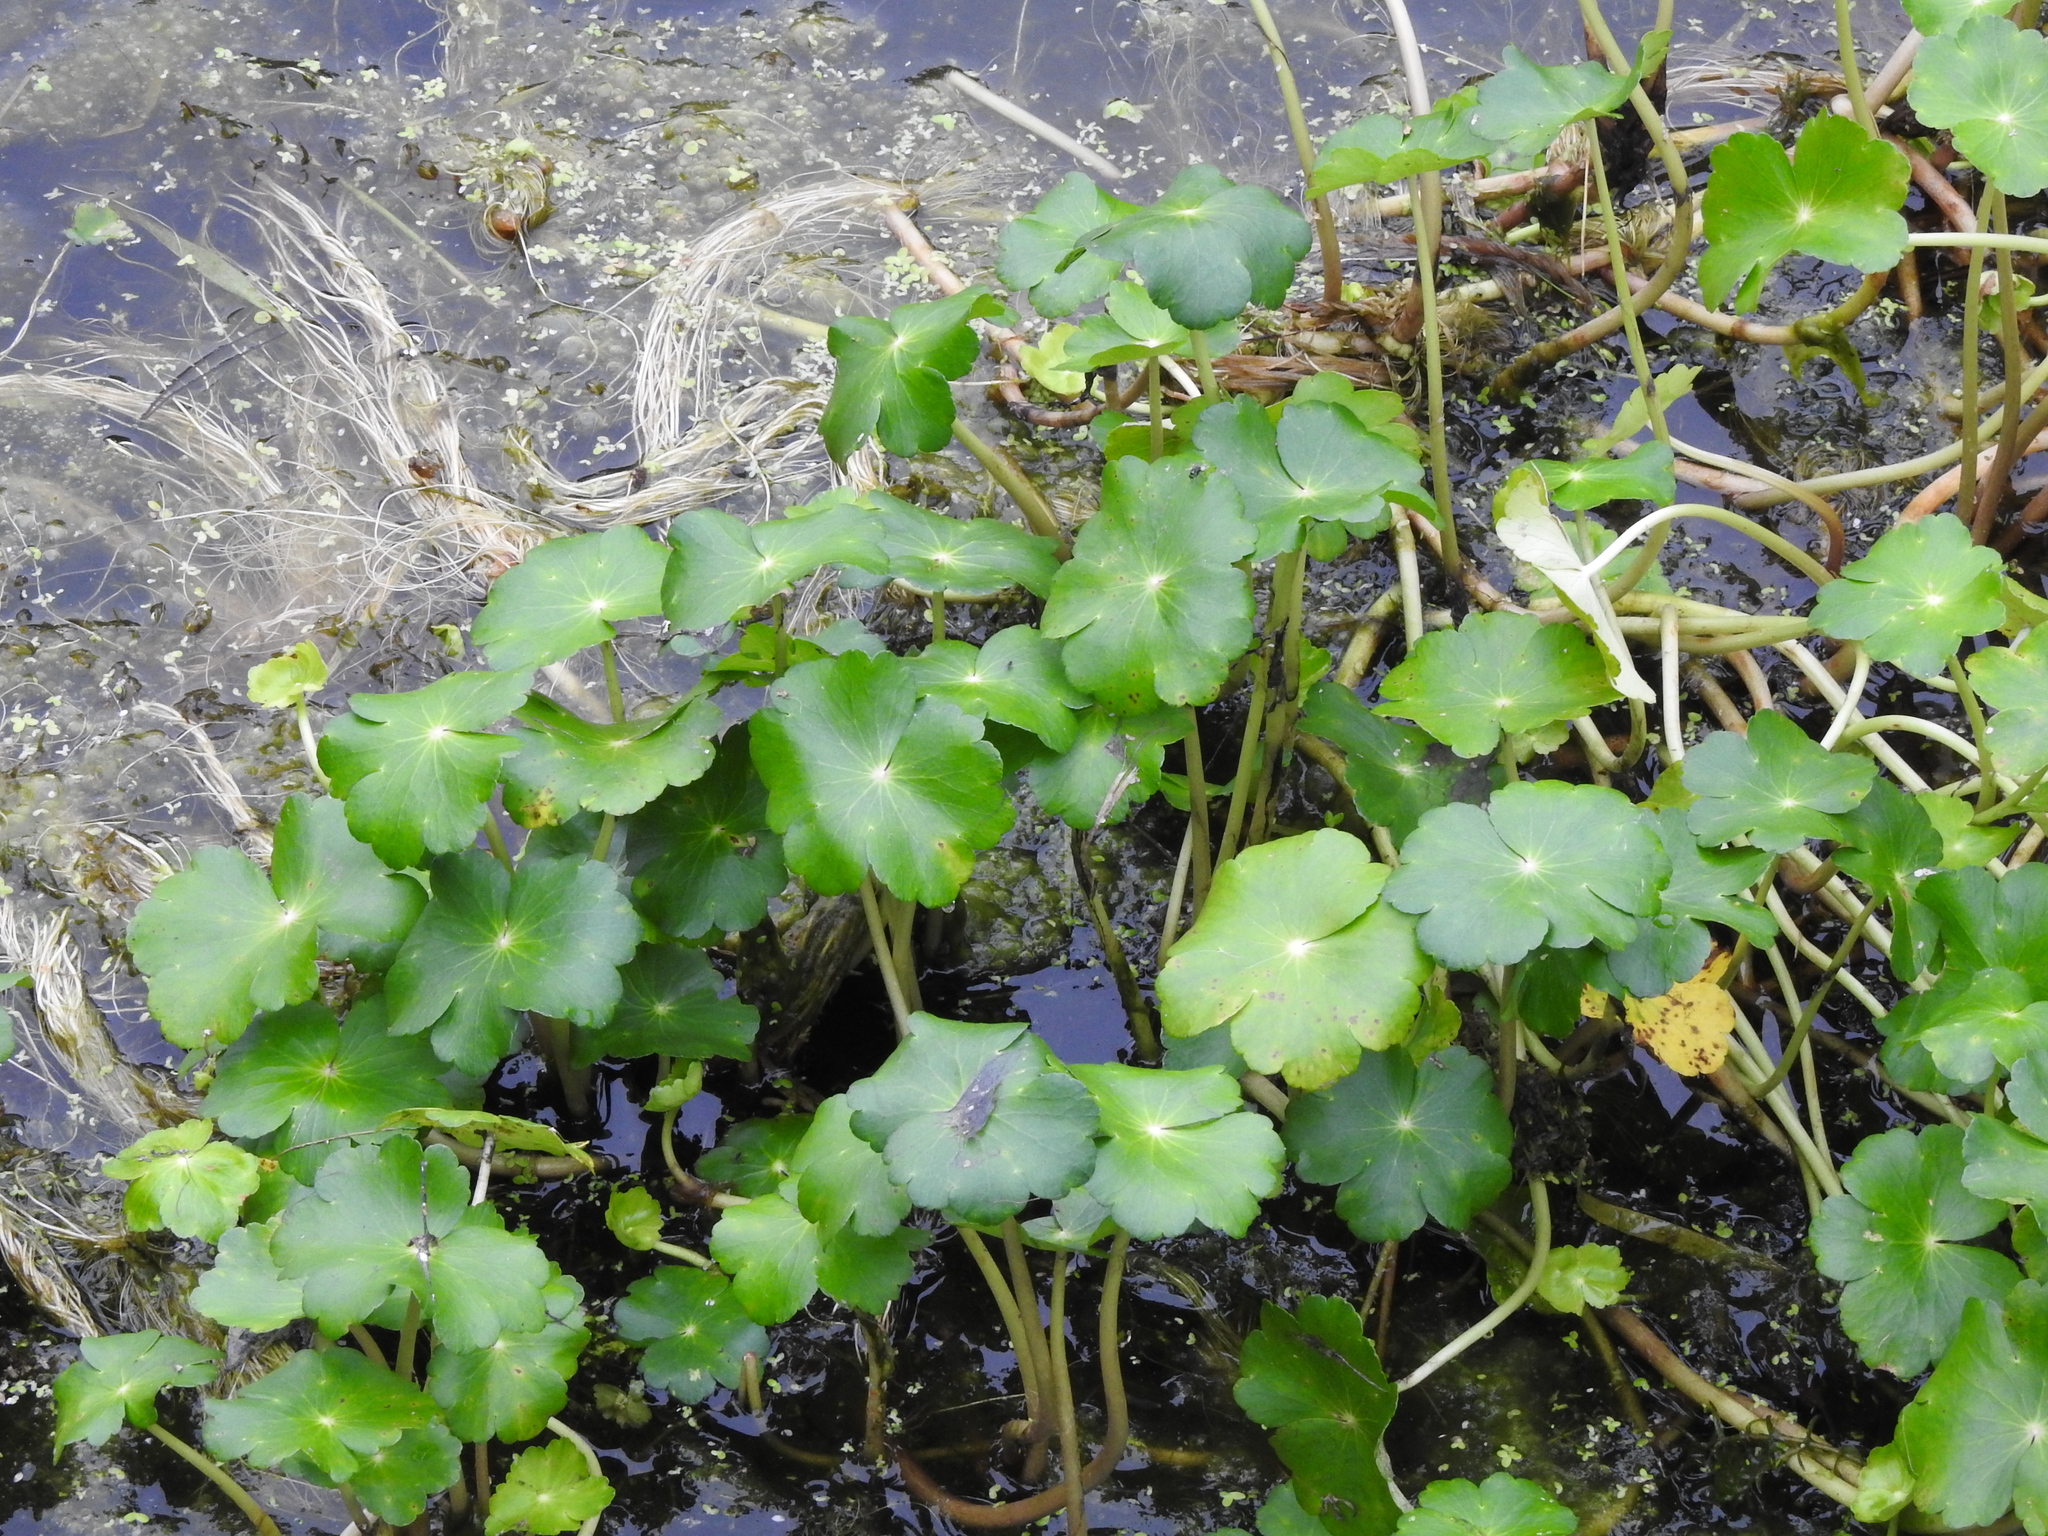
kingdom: Plantae
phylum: Tracheophyta
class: Magnoliopsida
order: Apiales
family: Araliaceae
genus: Hydrocotyle
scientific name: Hydrocotyle ranunculoides
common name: Floating pennywort
